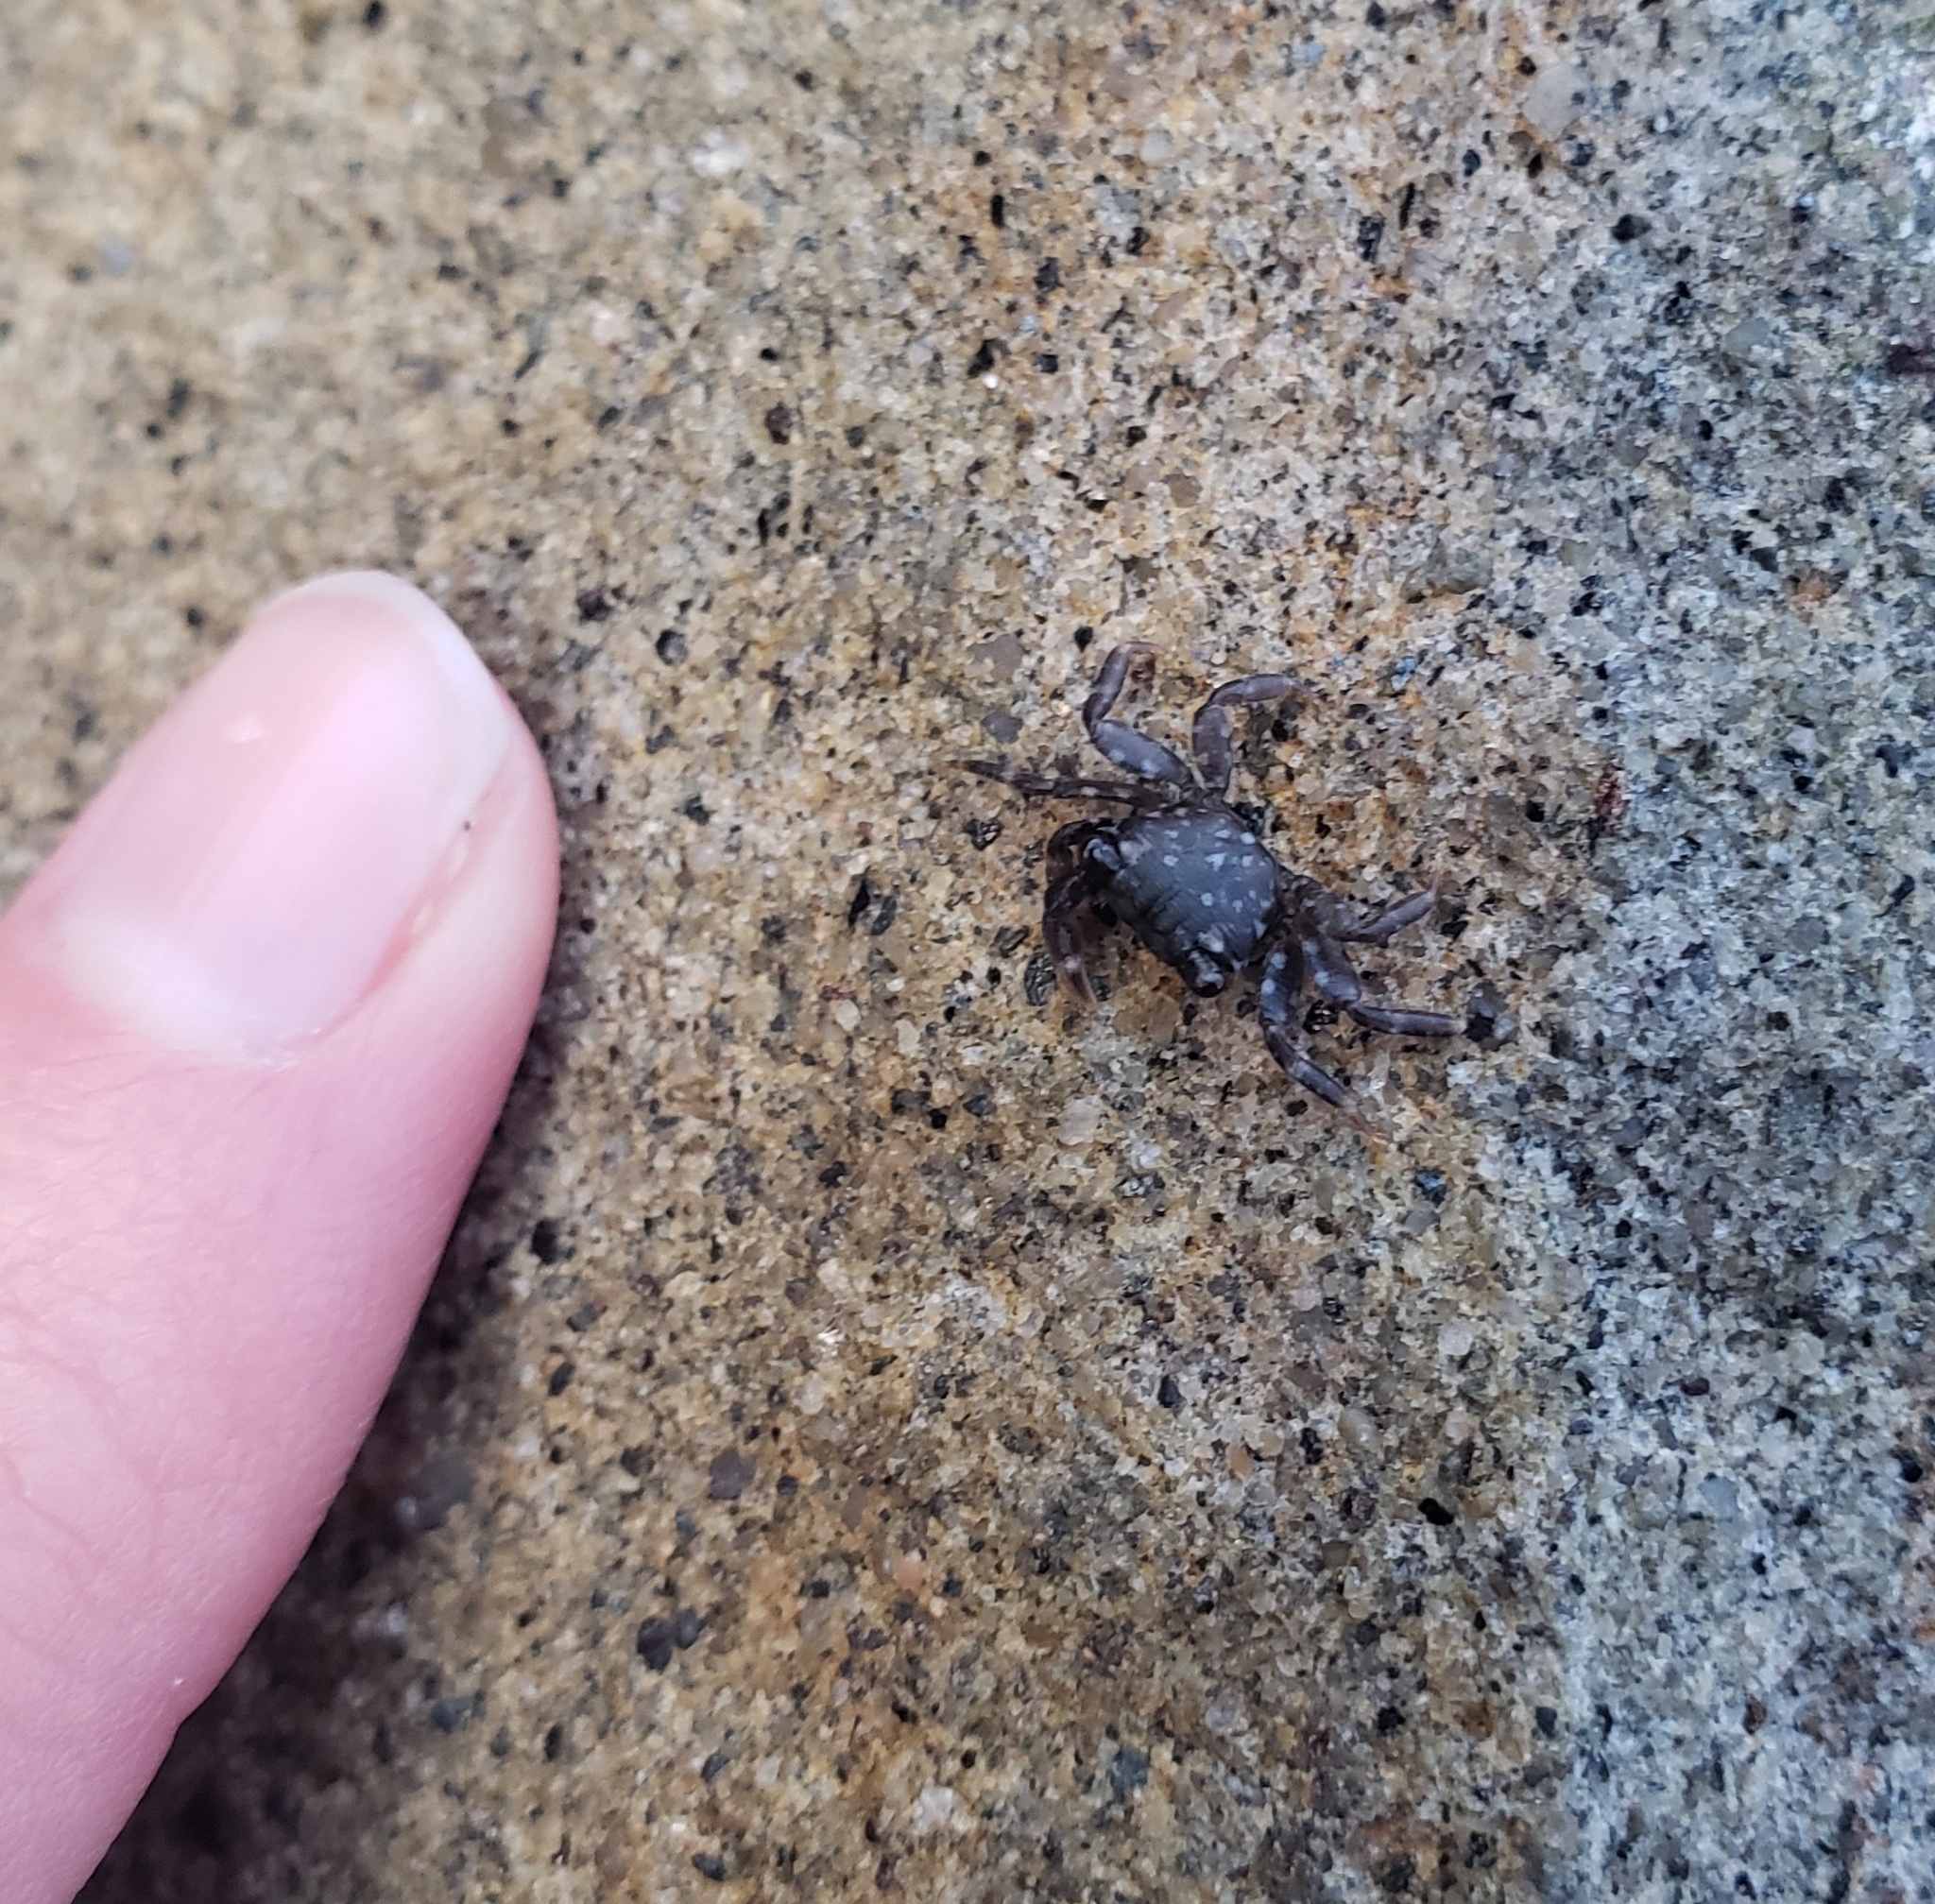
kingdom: Animalia
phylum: Arthropoda
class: Malacostraca
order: Decapoda
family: Grapsidae
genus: Pachygrapsus
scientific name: Pachygrapsus crassipes
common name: Striped shore crab
